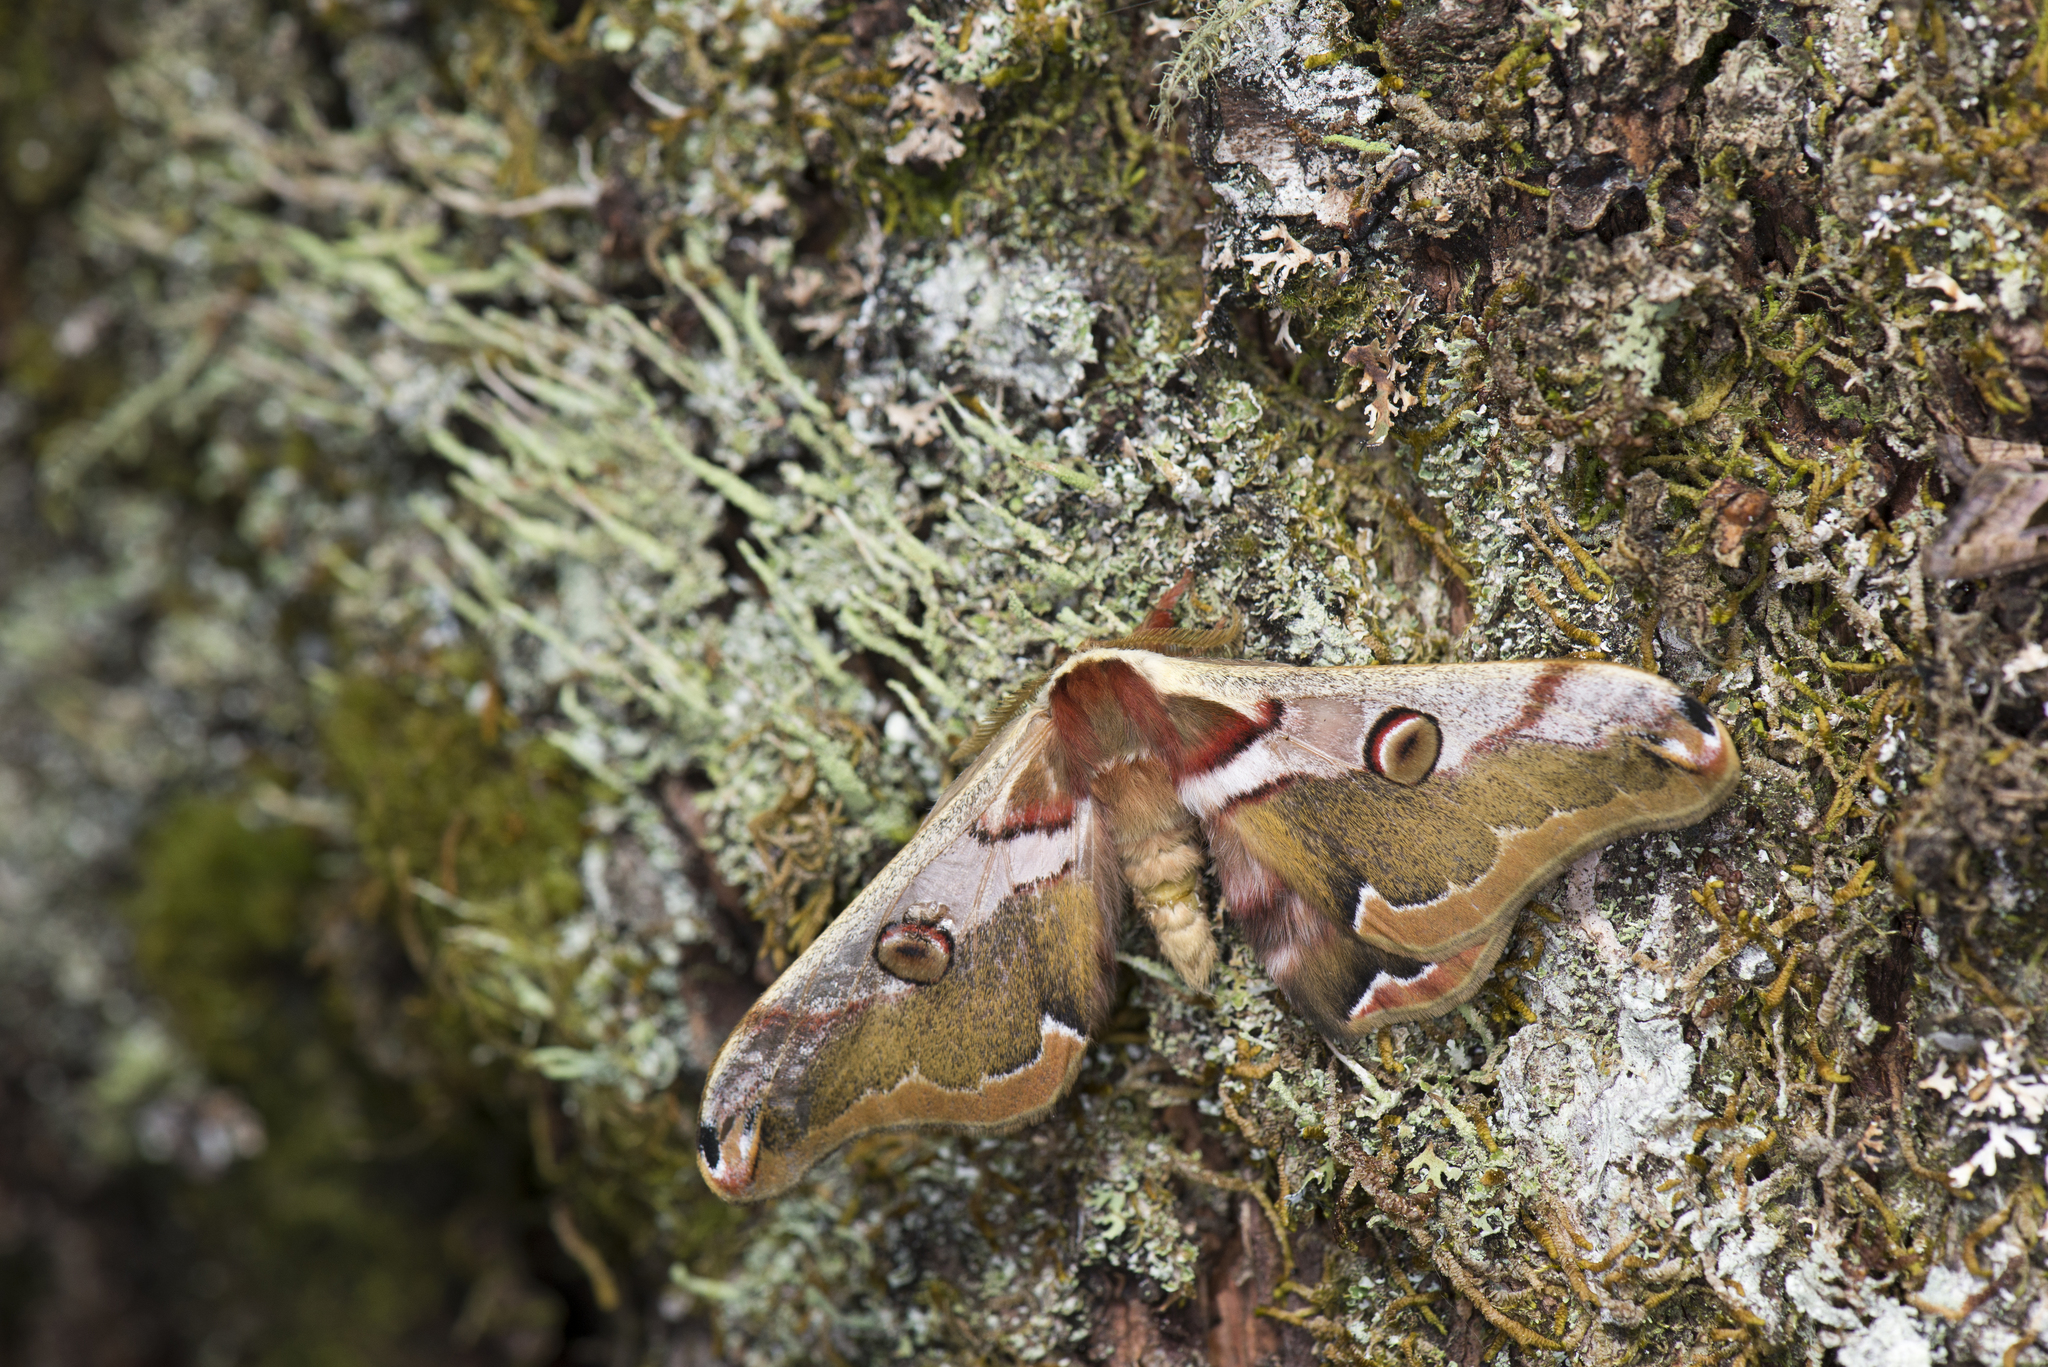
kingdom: Animalia
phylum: Arthropoda
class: Insecta
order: Lepidoptera
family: Saturniidae
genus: Rinaca
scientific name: Rinaca fukudai
